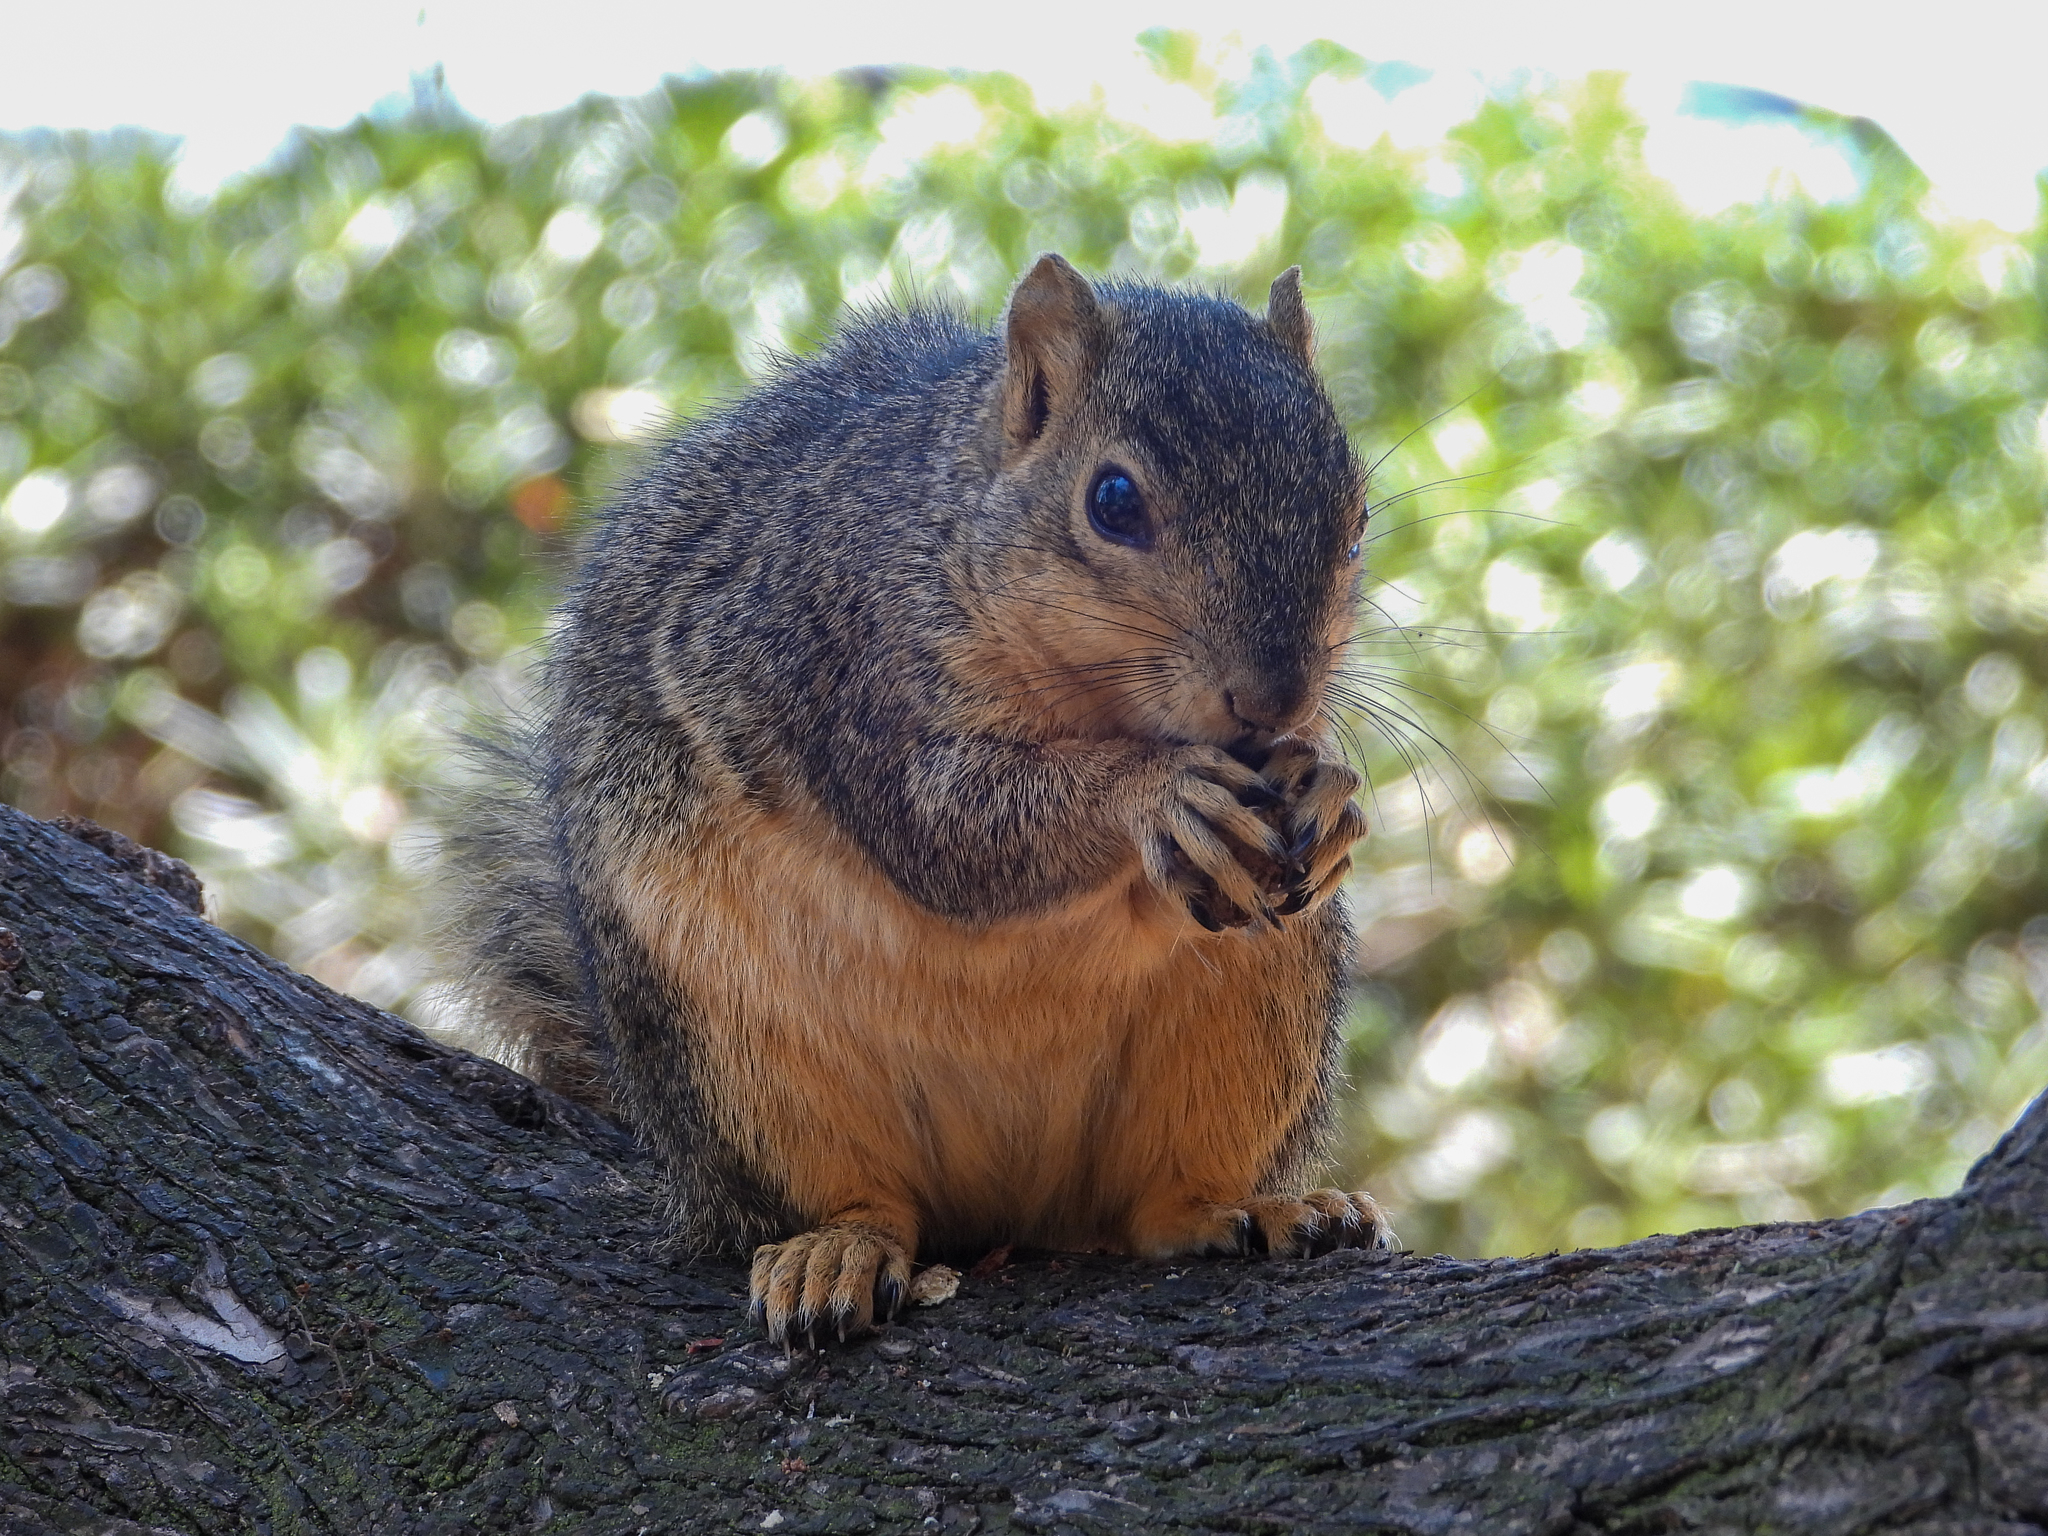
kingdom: Animalia
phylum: Chordata
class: Mammalia
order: Rodentia
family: Sciuridae
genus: Sciurus
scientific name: Sciurus niger
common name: Fox squirrel
